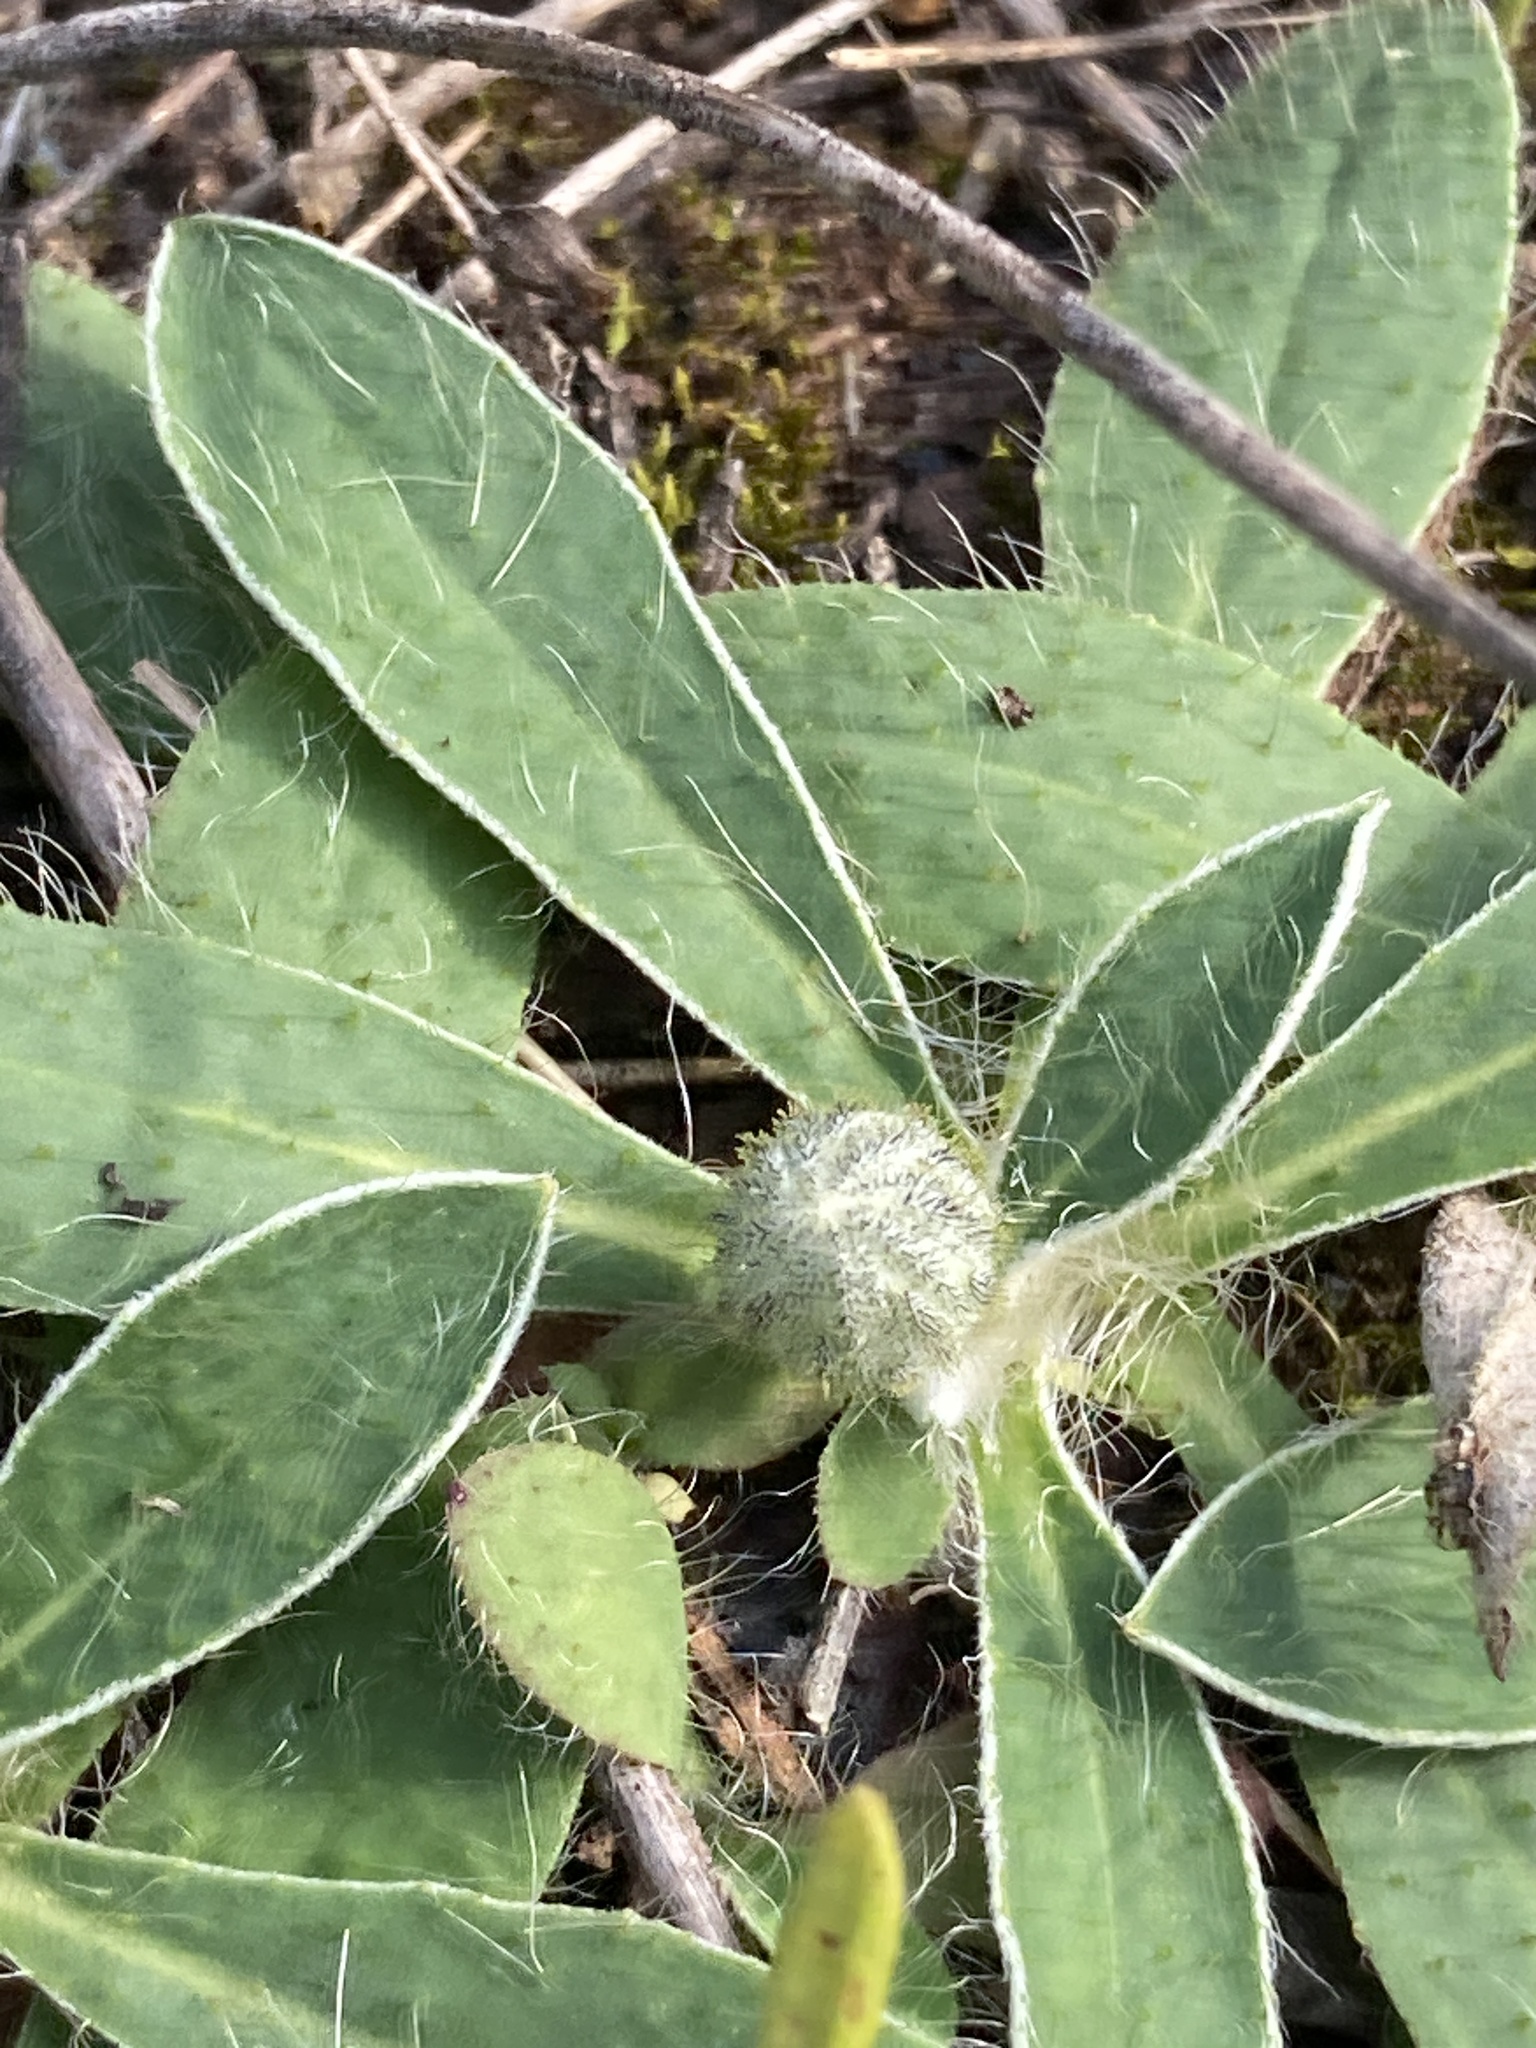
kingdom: Plantae
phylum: Tracheophyta
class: Magnoliopsida
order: Asterales
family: Asteraceae
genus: Pilosella
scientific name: Pilosella officinarum
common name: Mouse-ear hawkweed
